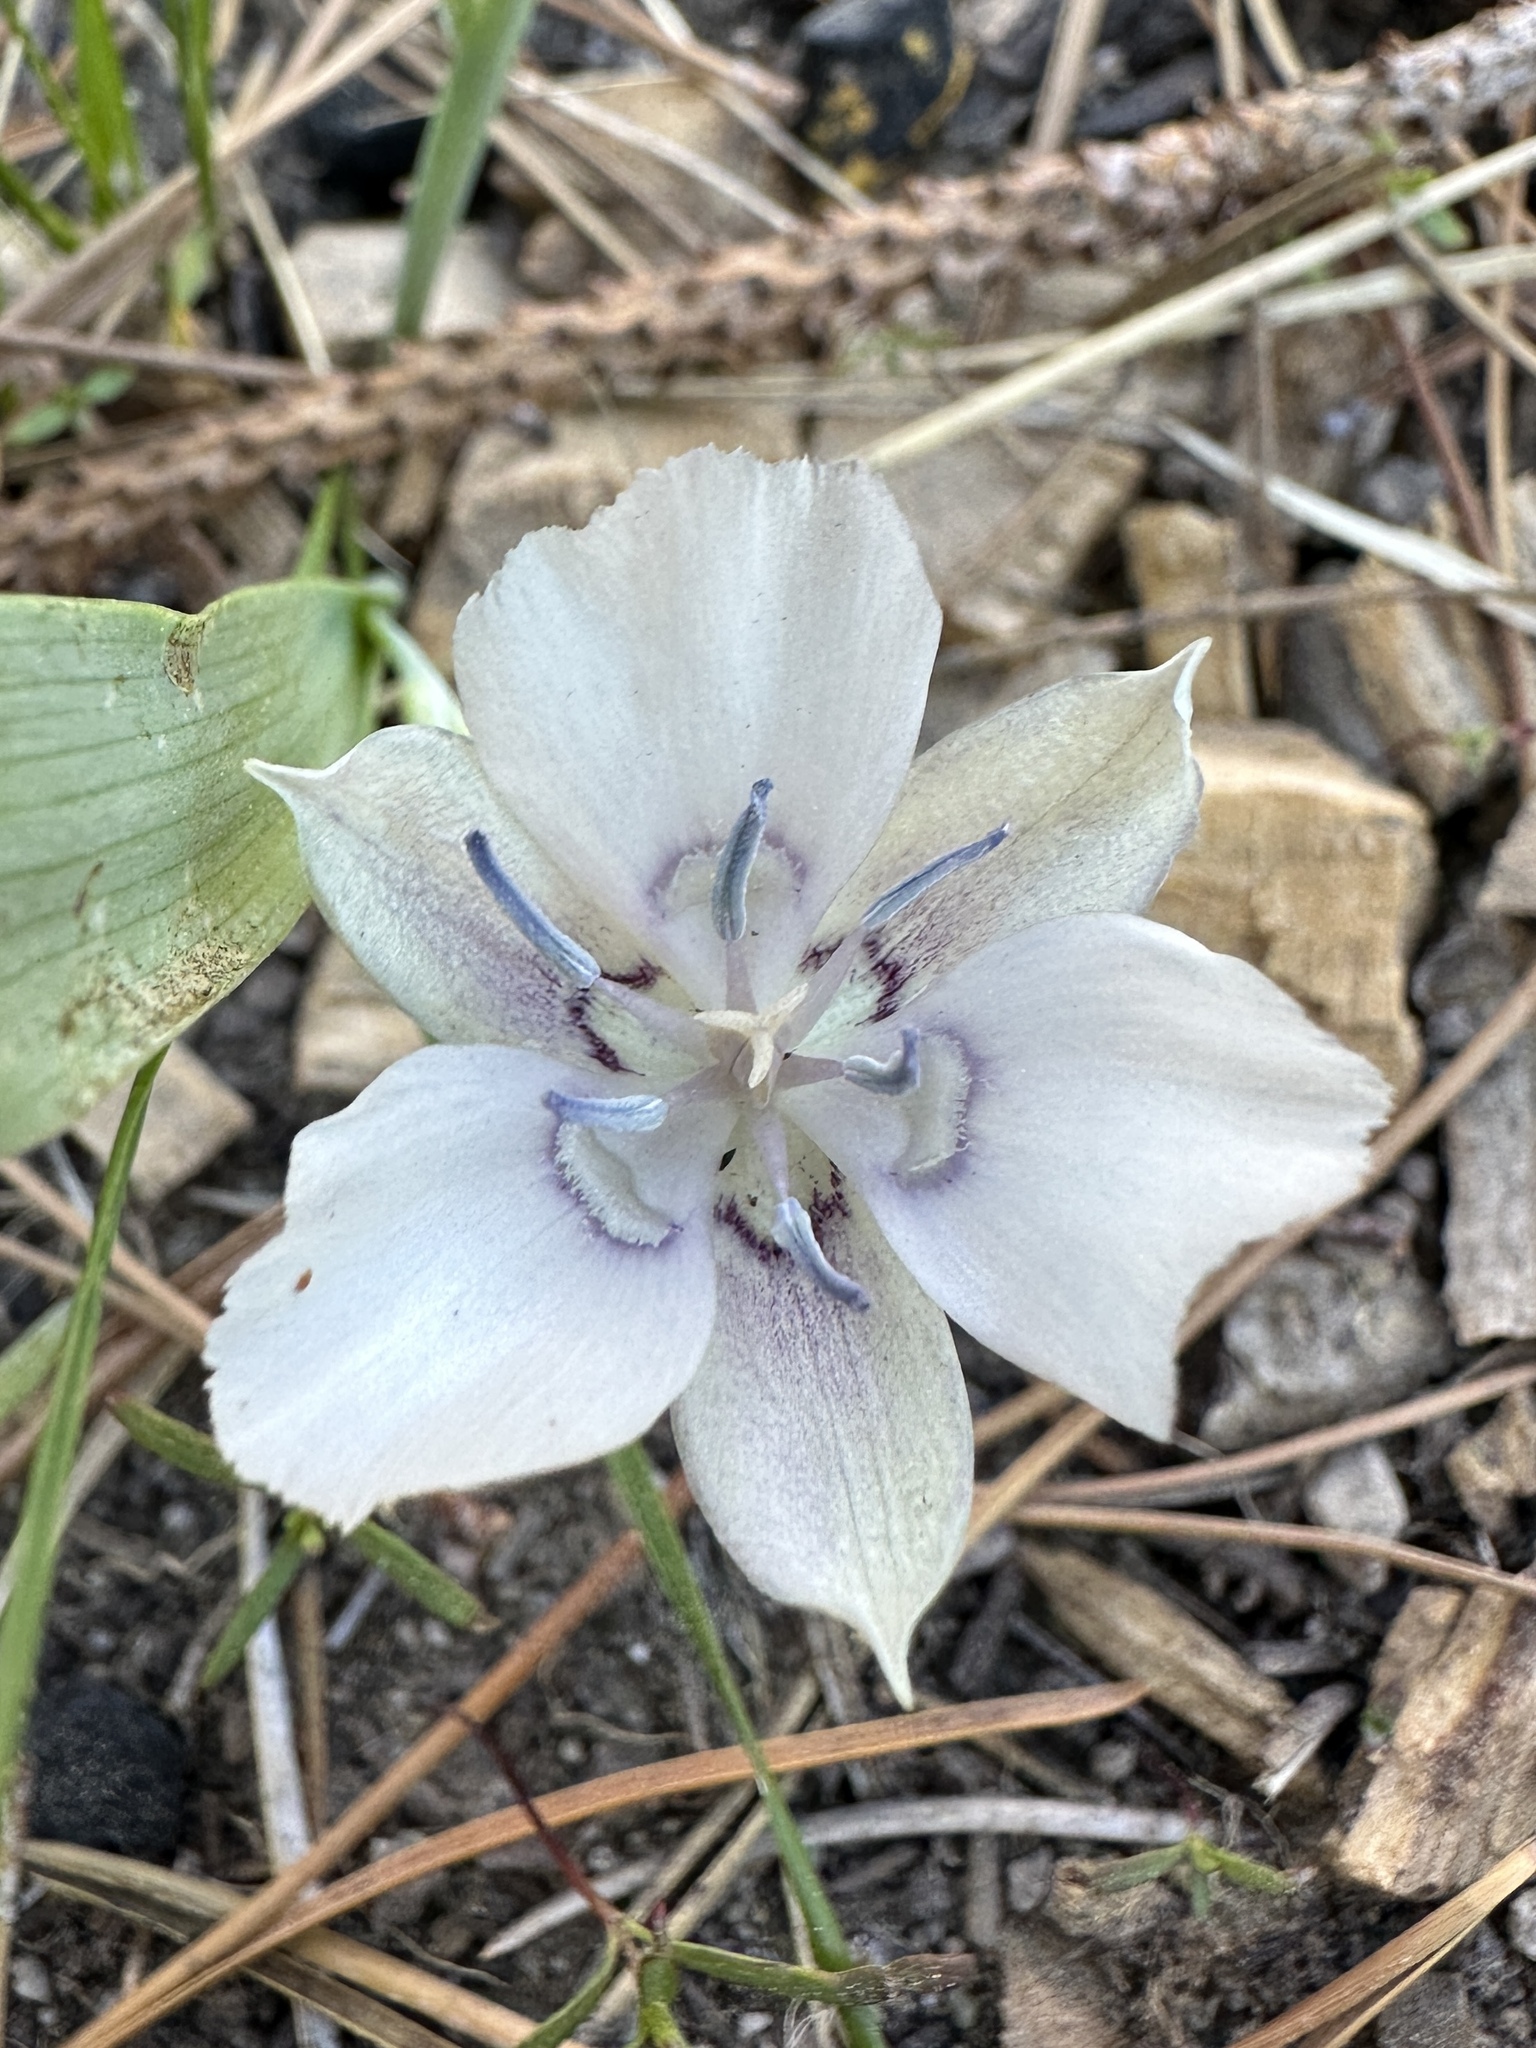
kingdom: Plantae
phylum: Tracheophyta
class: Liliopsida
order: Liliales
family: Liliaceae
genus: Calochortus
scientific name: Calochortus minimus
